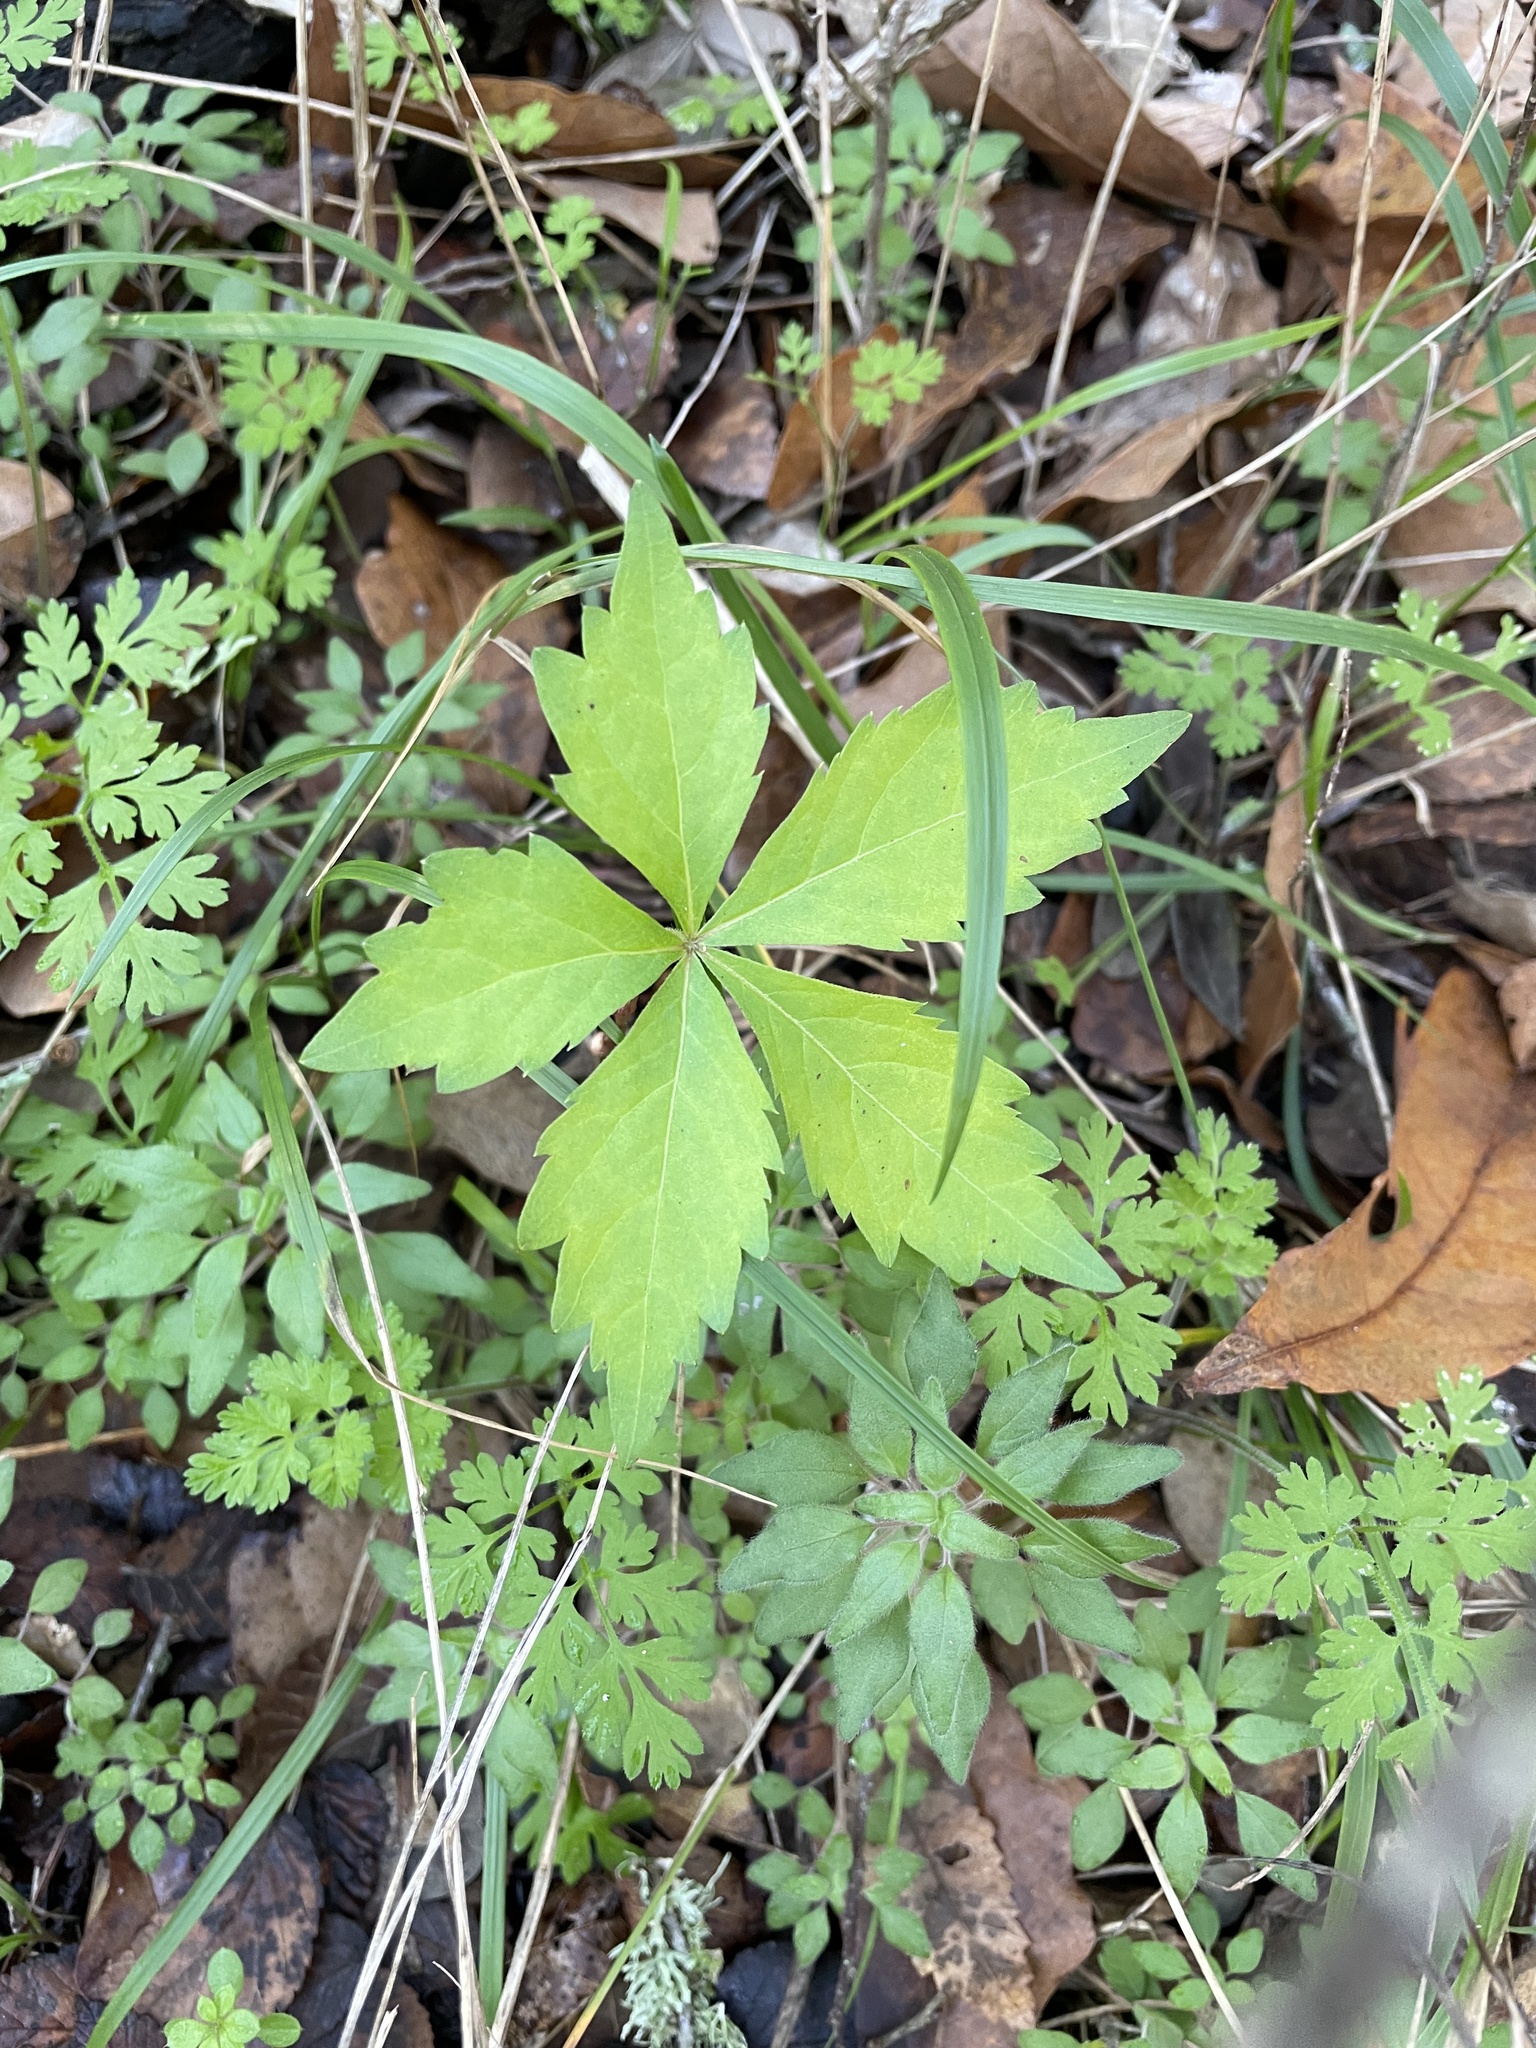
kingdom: Plantae
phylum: Tracheophyta
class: Magnoliopsida
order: Vitales
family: Vitaceae
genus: Parthenocissus
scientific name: Parthenocissus quinquefolia
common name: Virginia-creeper
